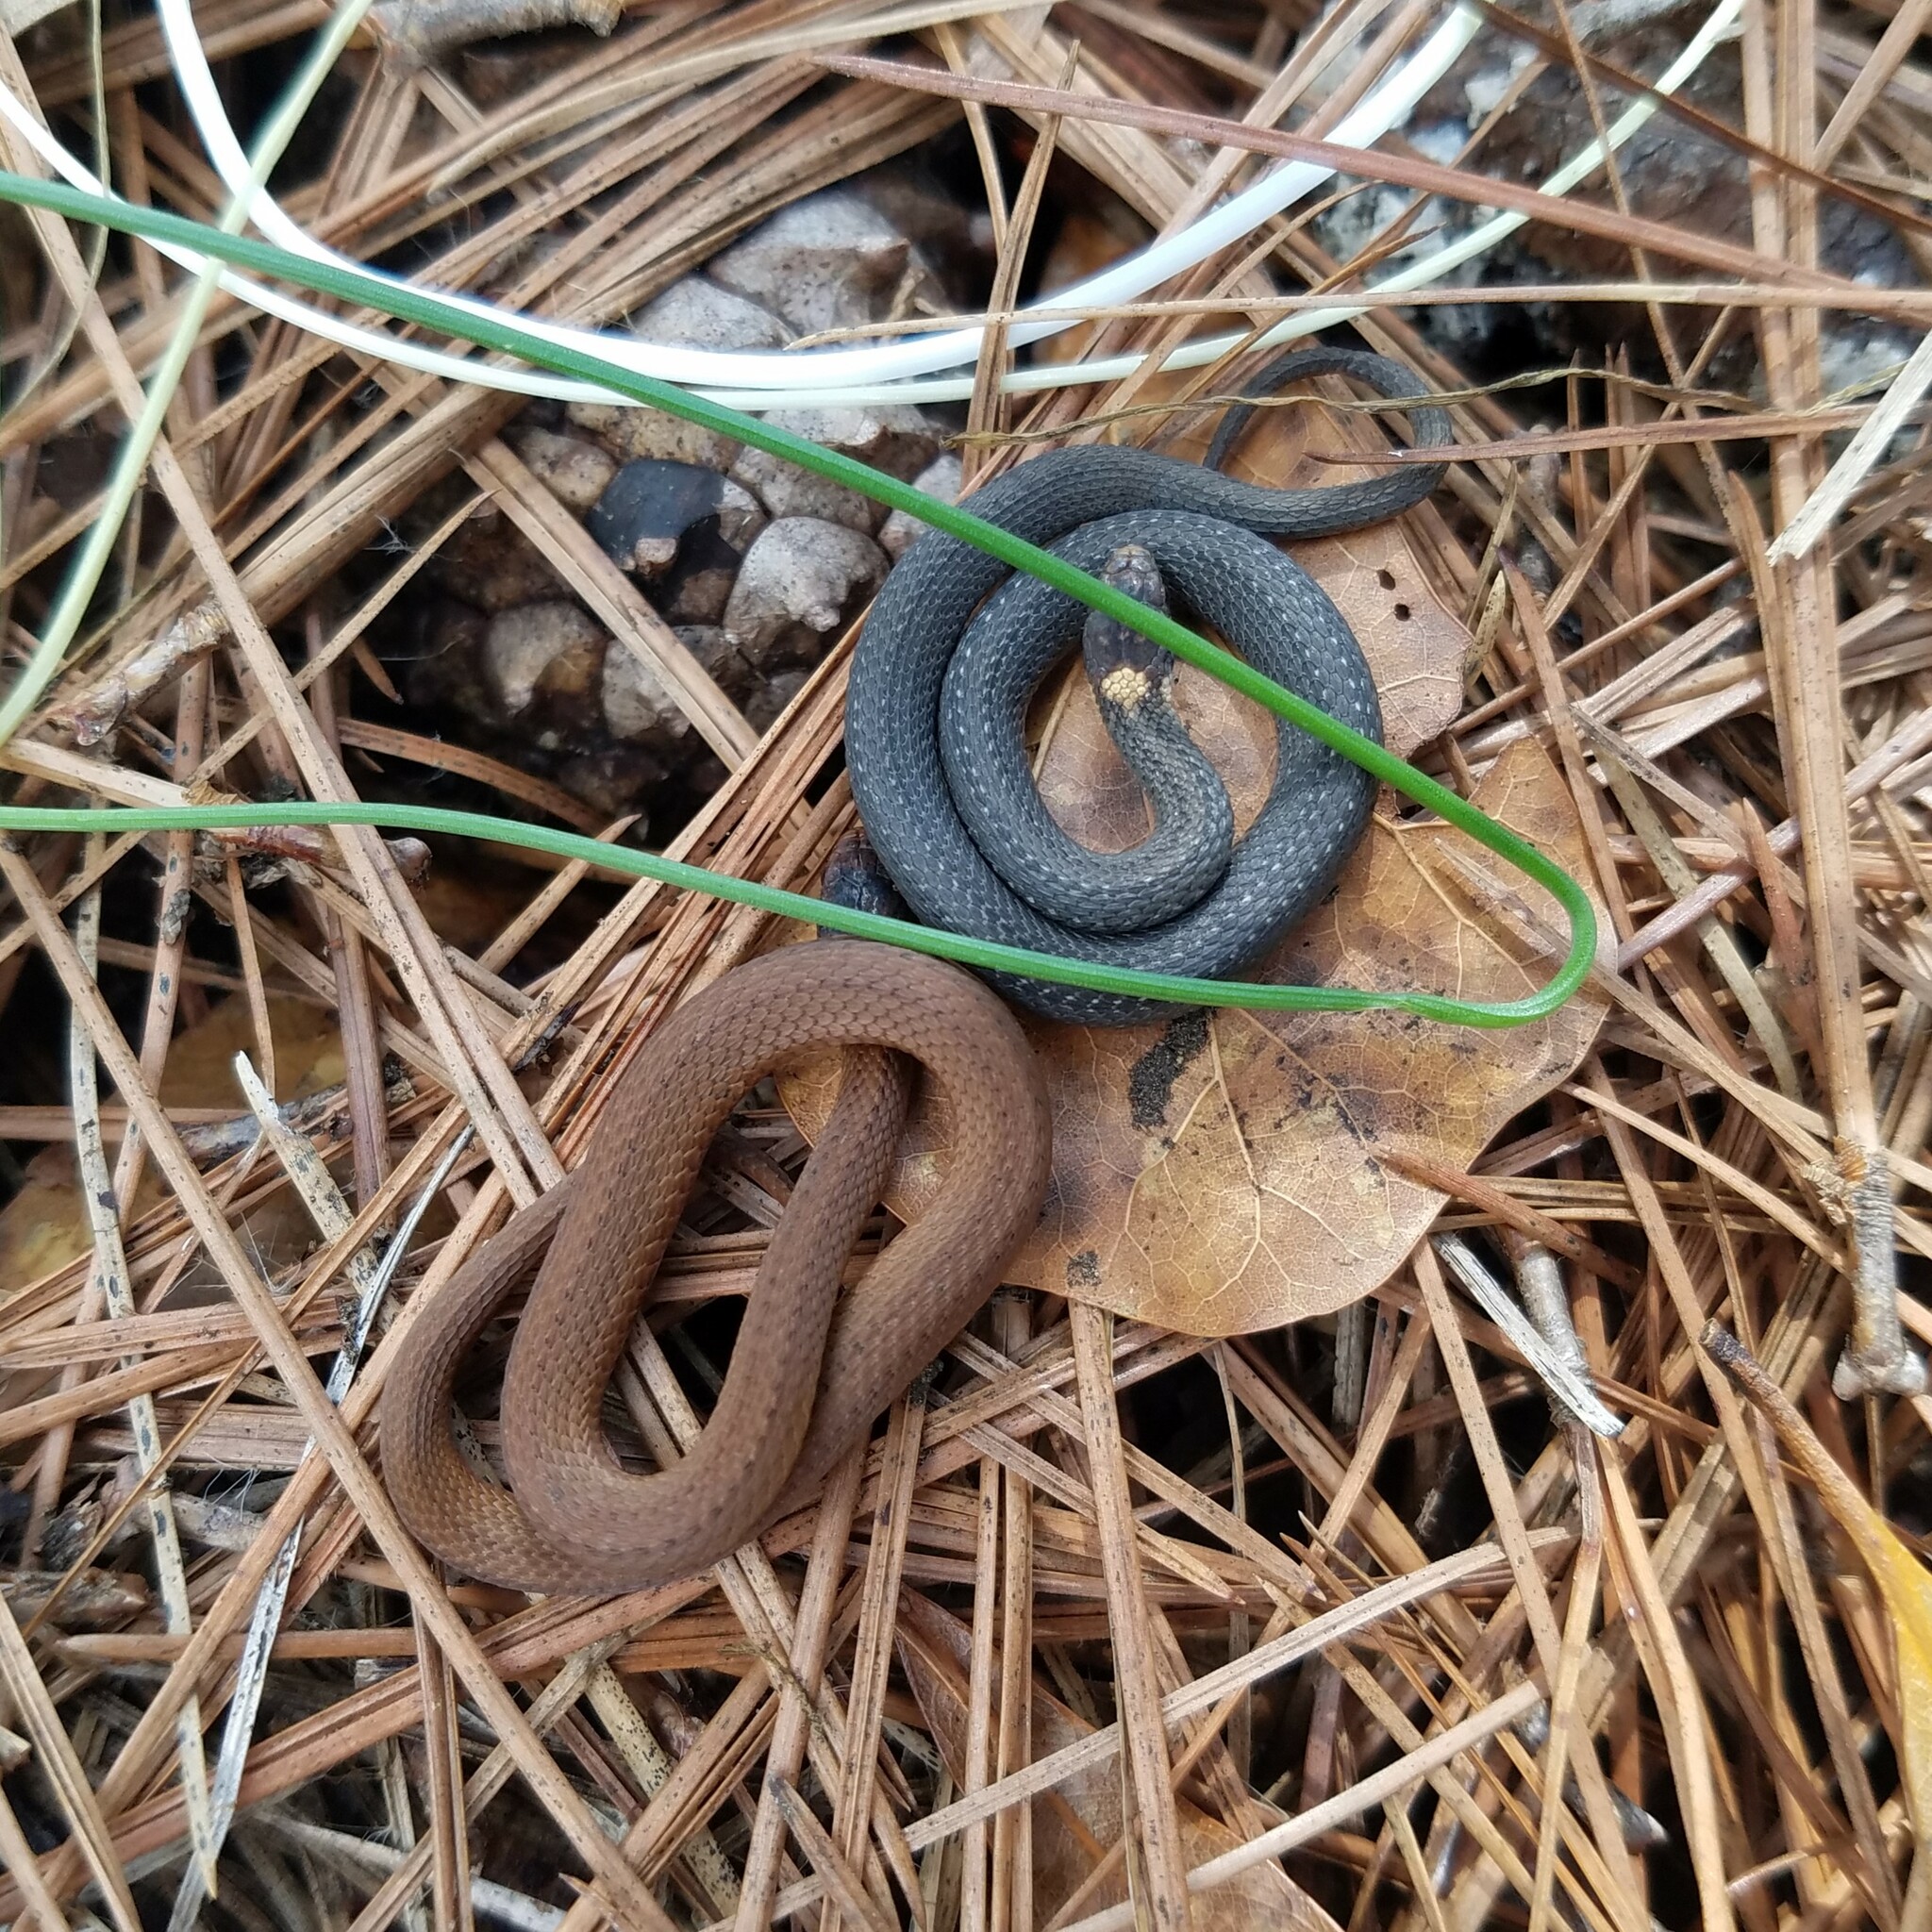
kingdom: Animalia
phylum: Chordata
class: Squamata
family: Colubridae
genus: Storeria
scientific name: Storeria occipitomaculata
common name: Redbelly snake
